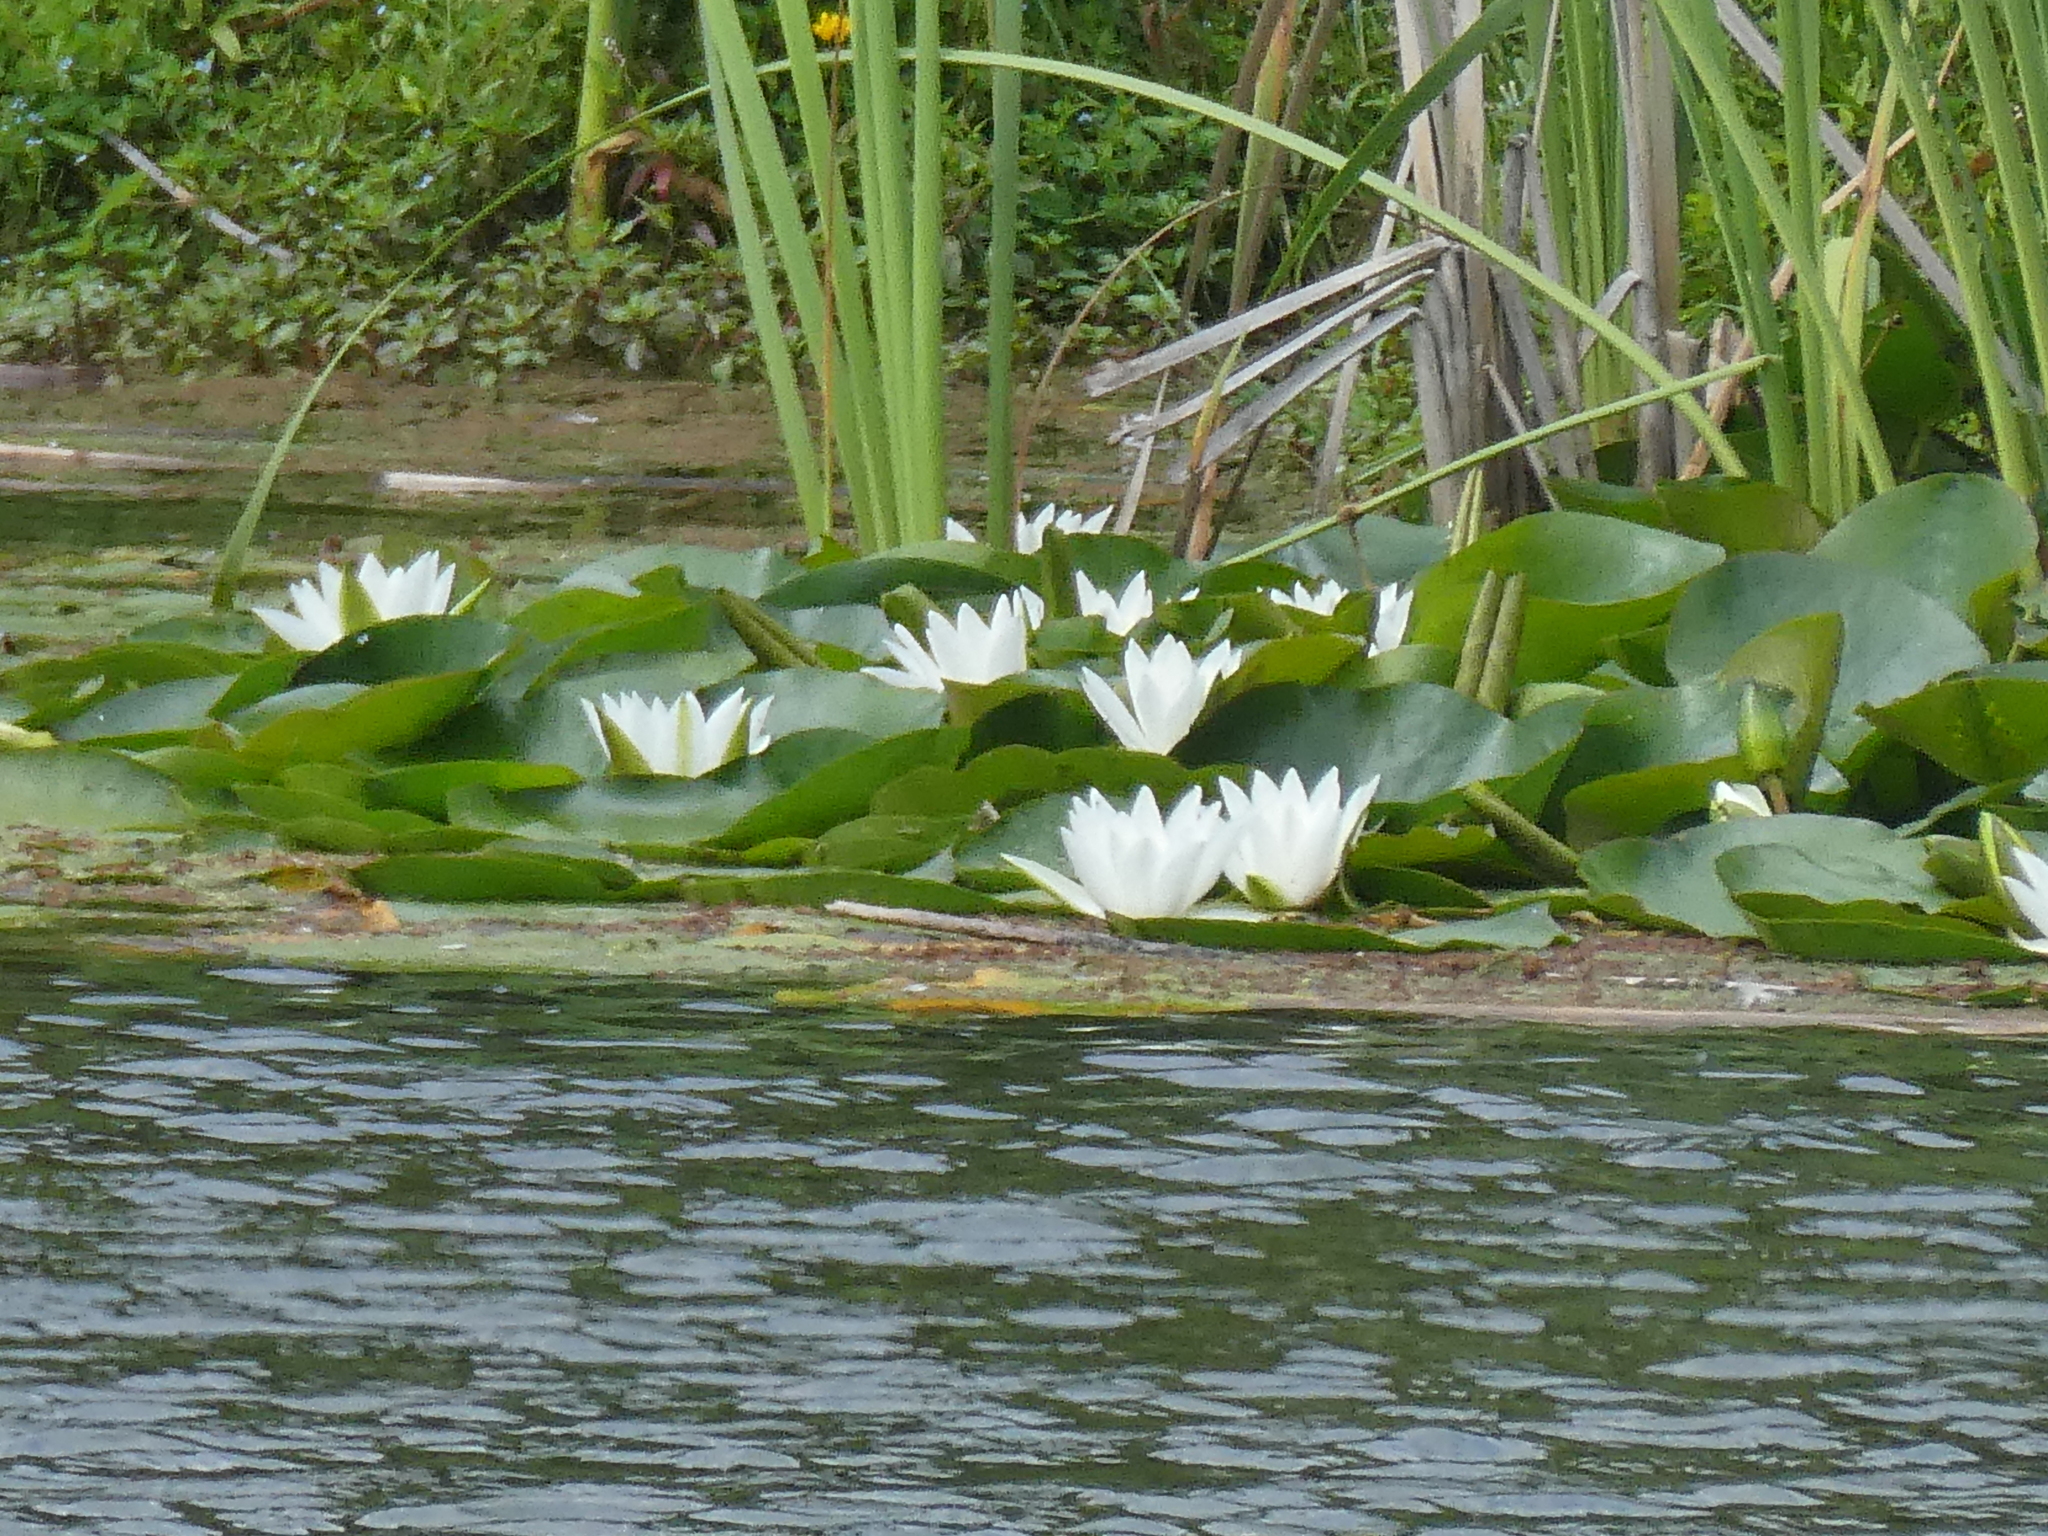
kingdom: Plantae
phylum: Tracheophyta
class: Magnoliopsida
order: Nymphaeales
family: Nymphaeaceae
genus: Nymphaea
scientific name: Nymphaea alba
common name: White water-lily
